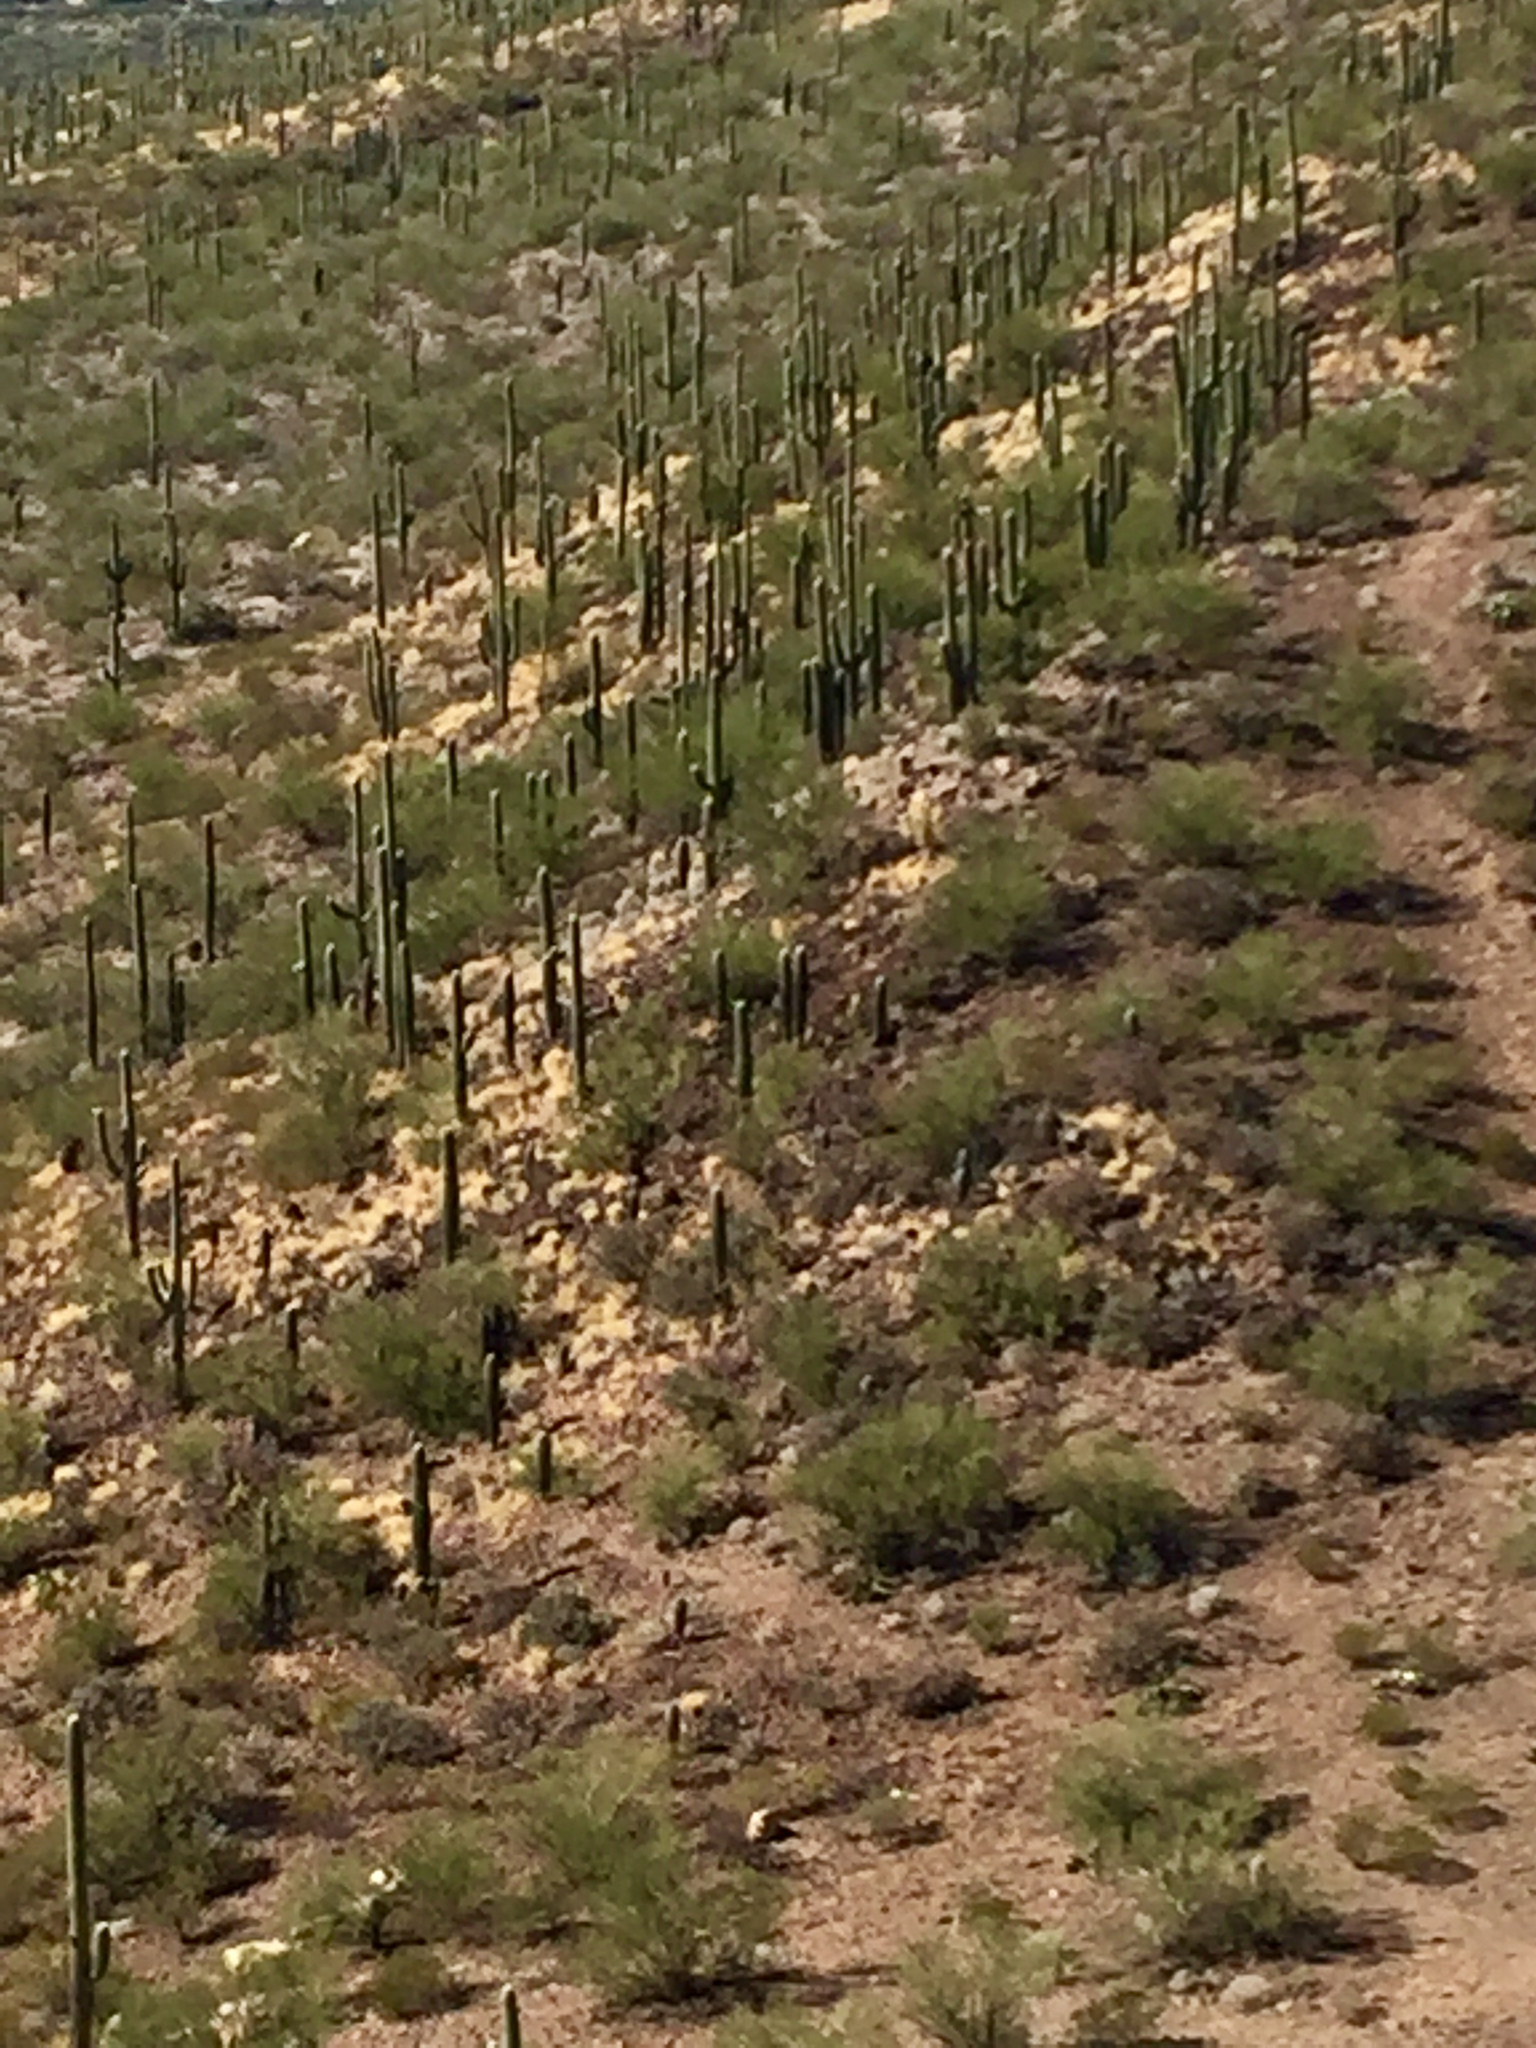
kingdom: Plantae
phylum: Tracheophyta
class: Magnoliopsida
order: Caryophyllales
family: Cactaceae
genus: Carnegiea
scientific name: Carnegiea gigantea
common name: Saguaro
